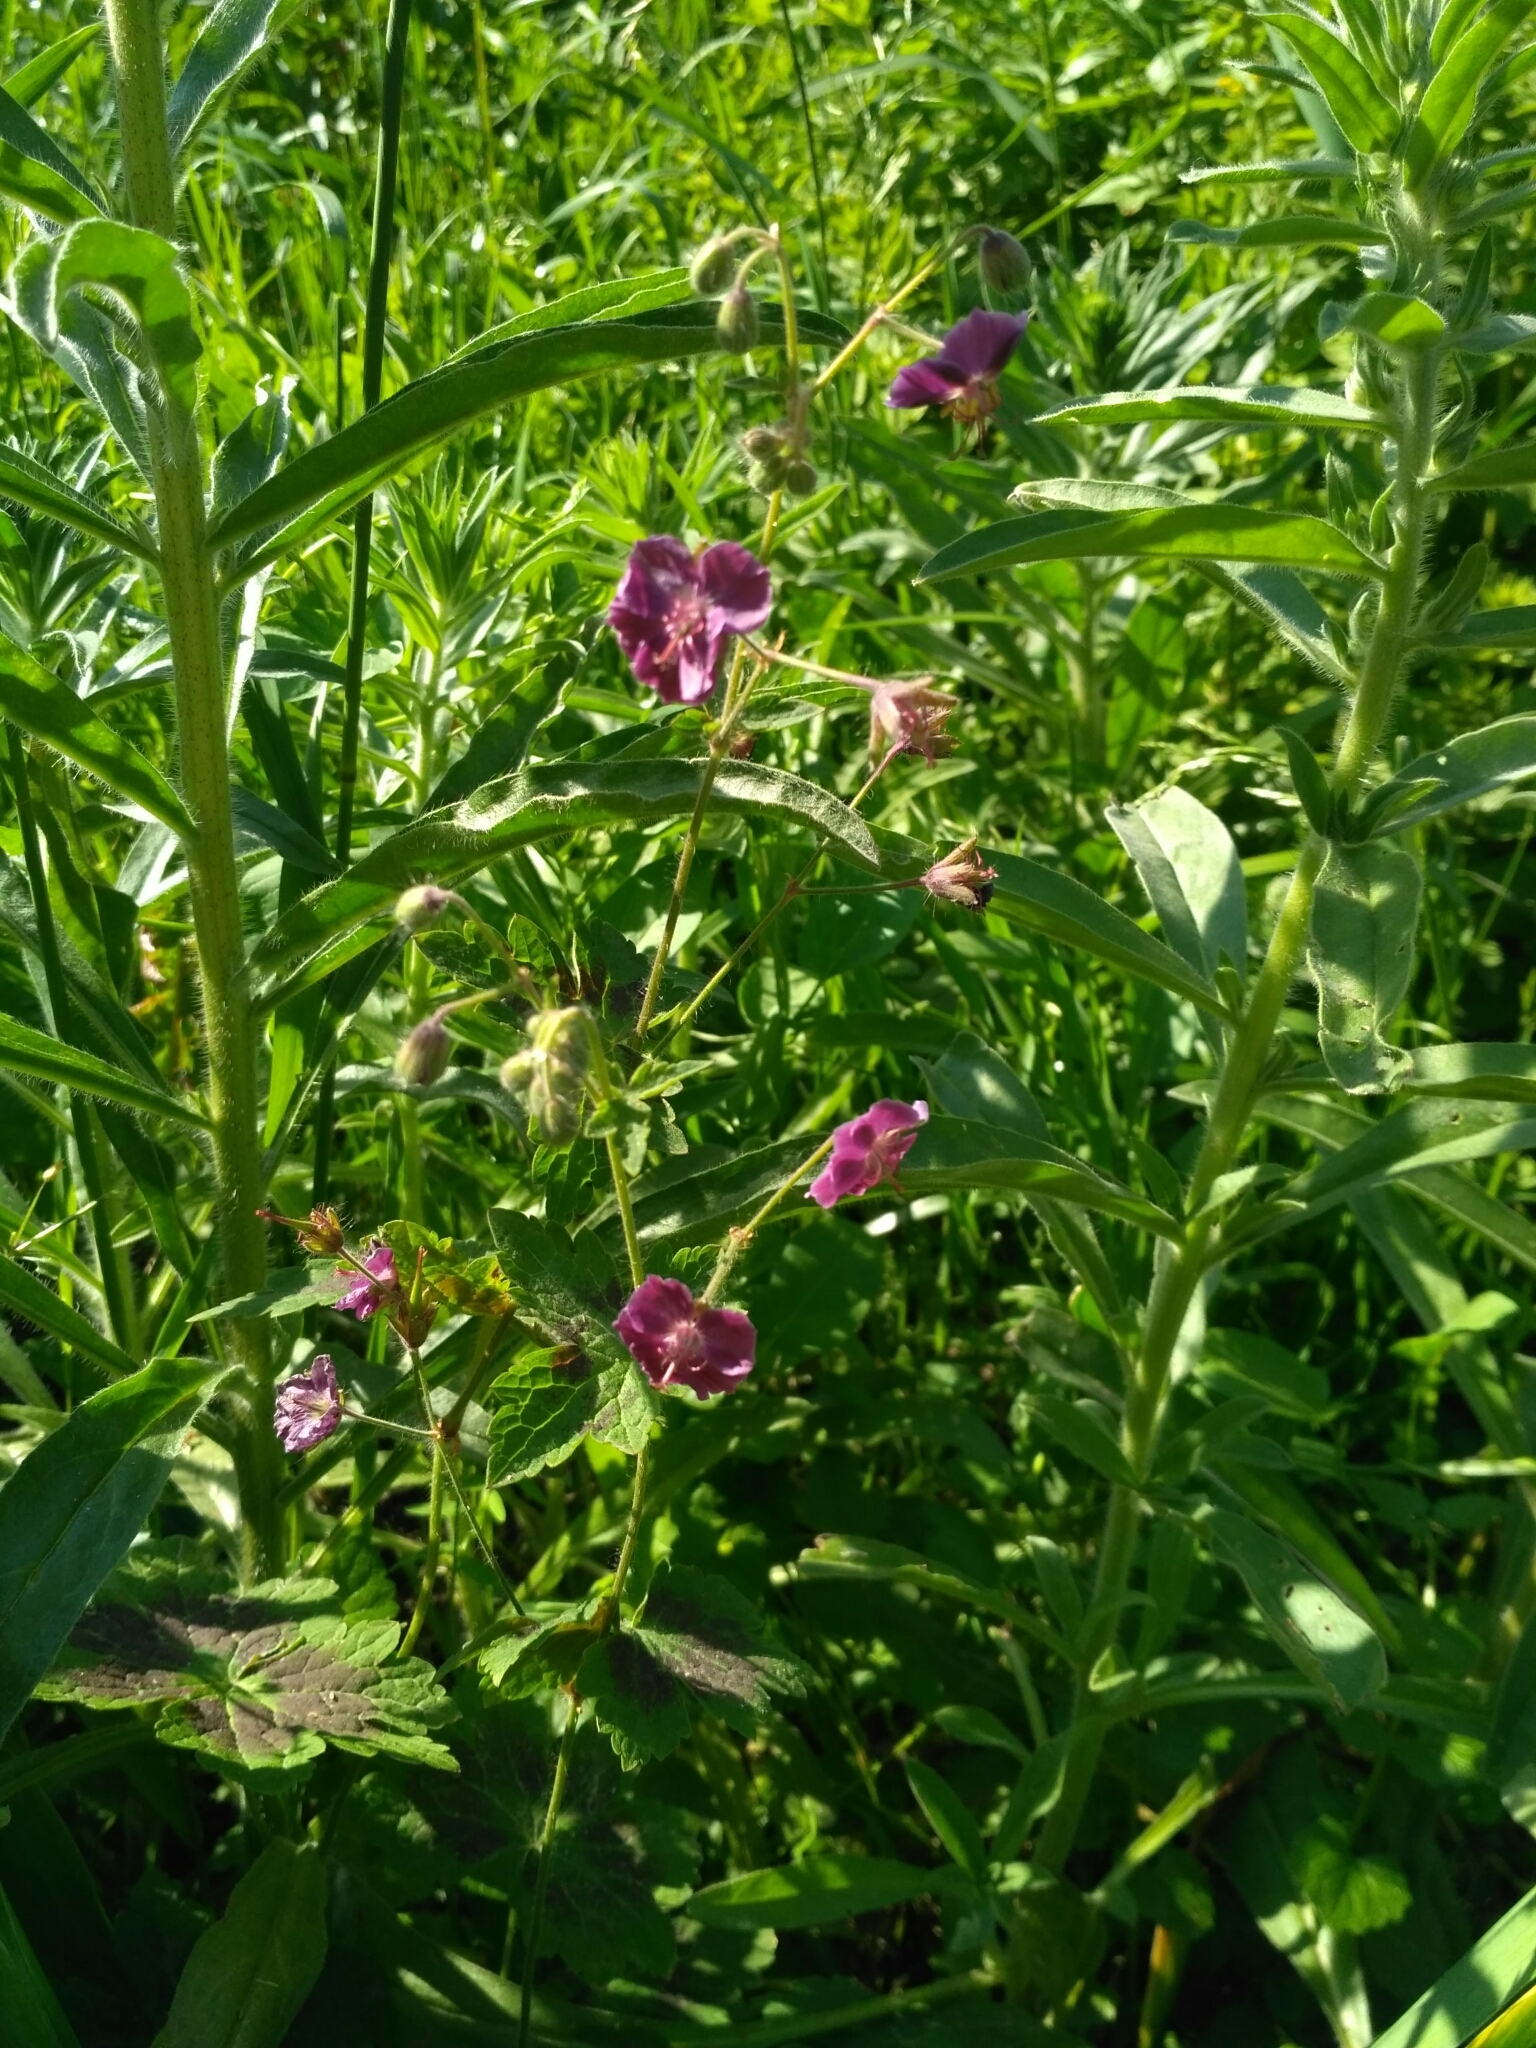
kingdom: Plantae
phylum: Tracheophyta
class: Magnoliopsida
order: Geraniales
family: Geraniaceae
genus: Geranium
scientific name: Geranium phaeum
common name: Dusky crane's-bill
